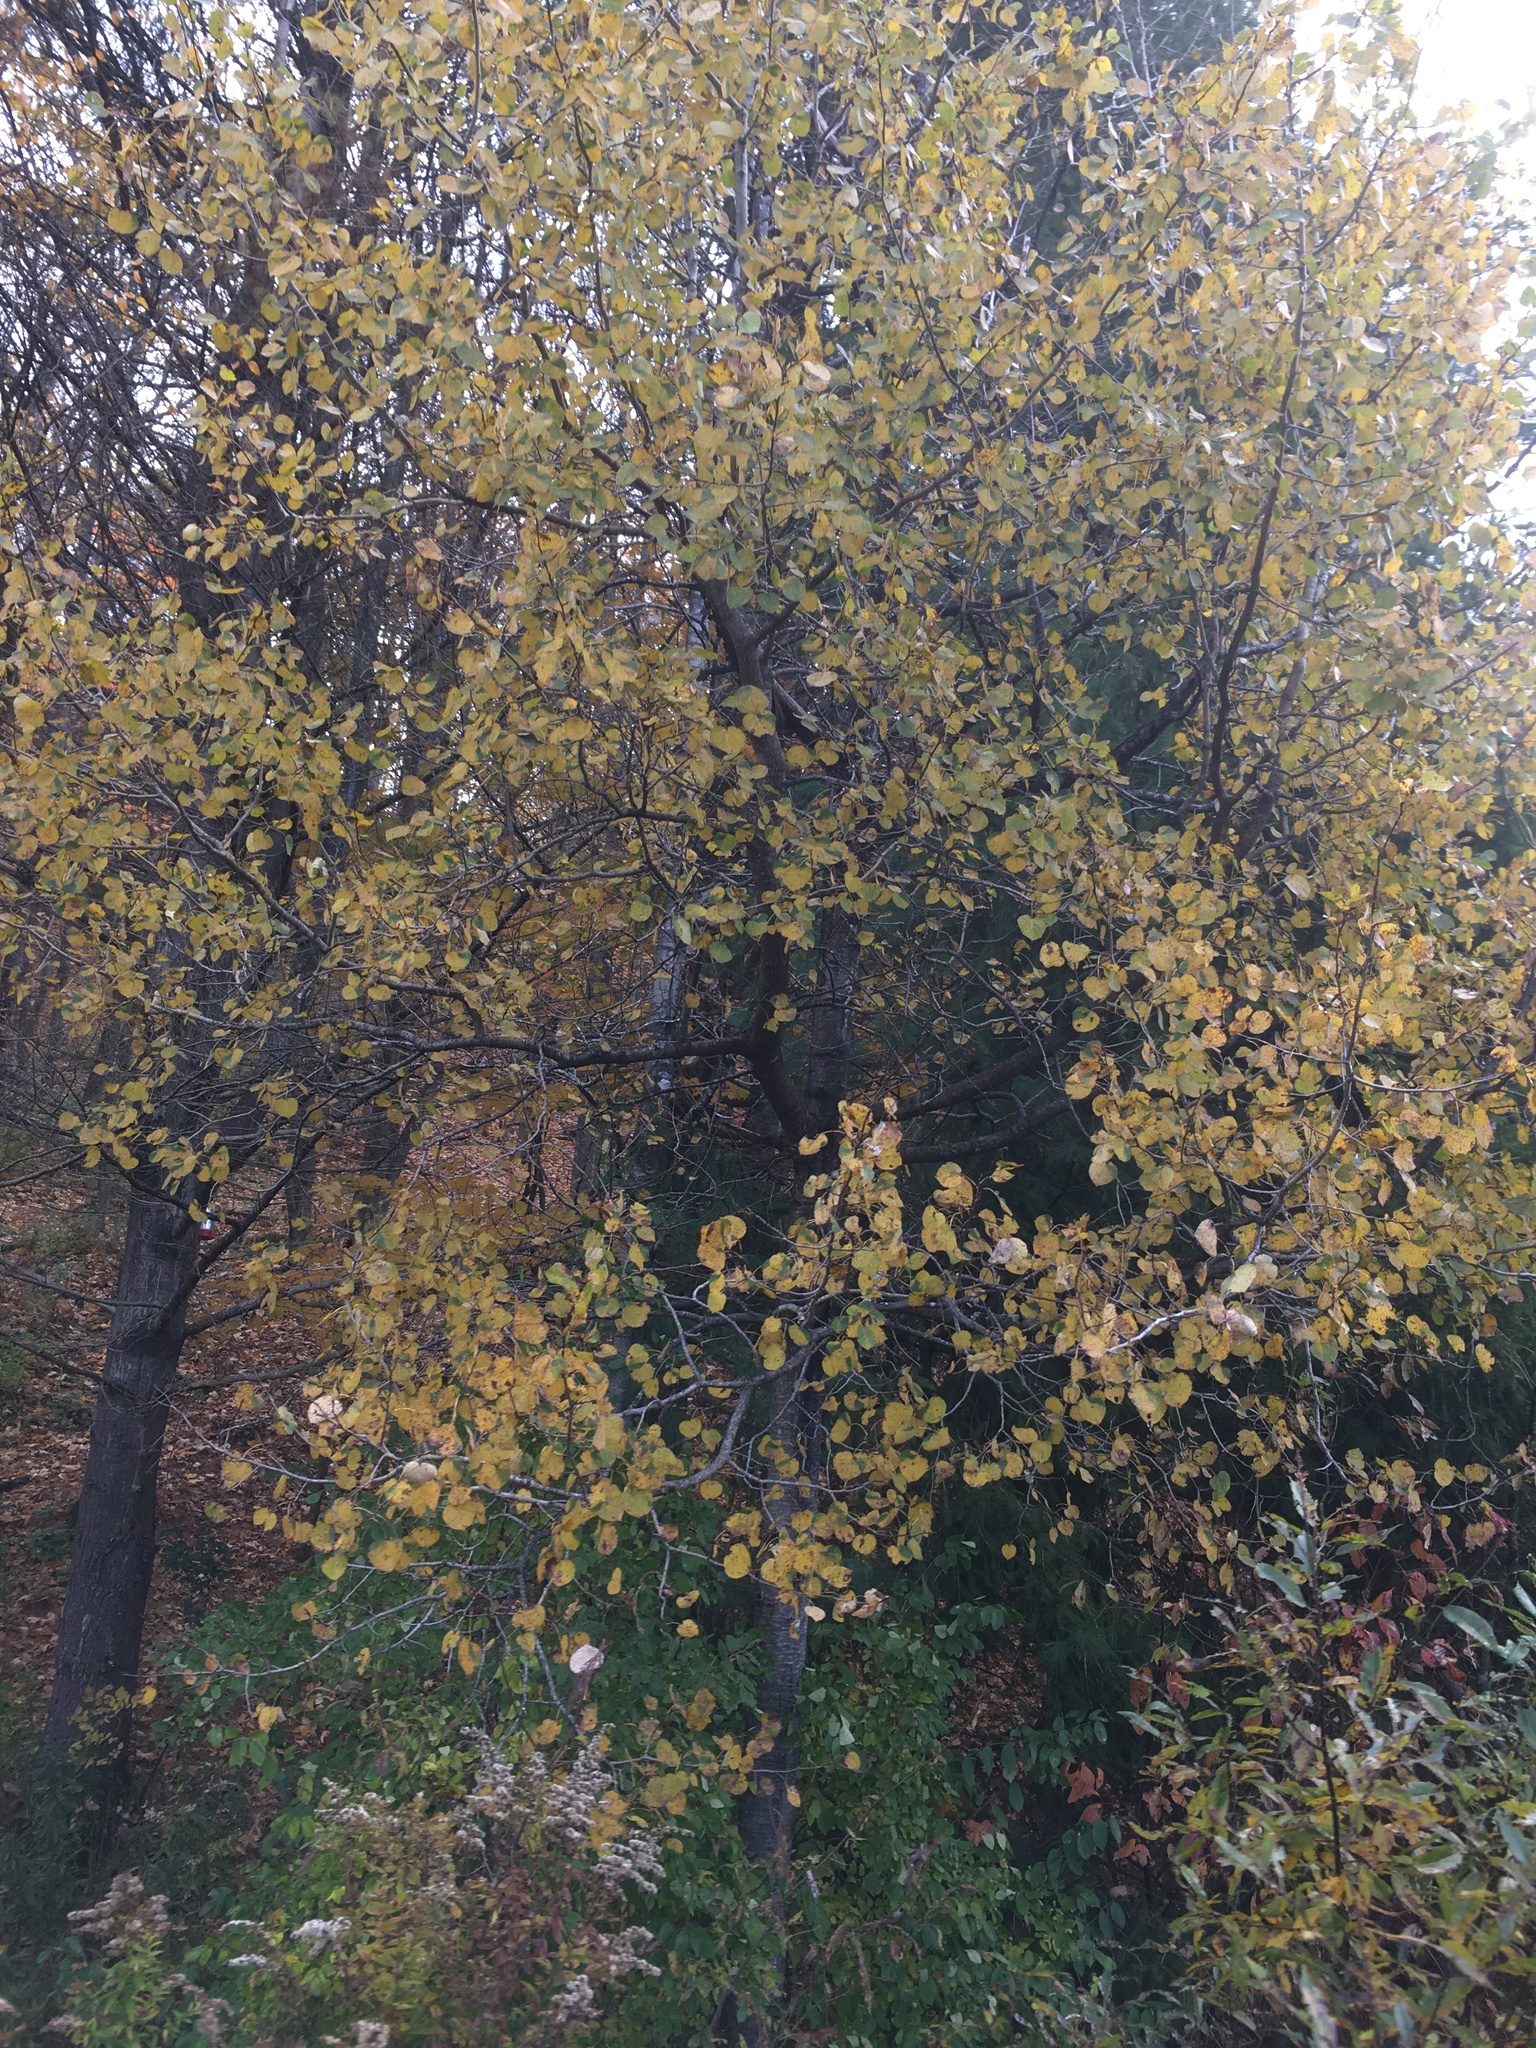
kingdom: Plantae
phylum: Tracheophyta
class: Magnoliopsida
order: Malpighiales
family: Salicaceae
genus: Populus
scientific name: Populus tremuloides
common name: Quaking aspen
